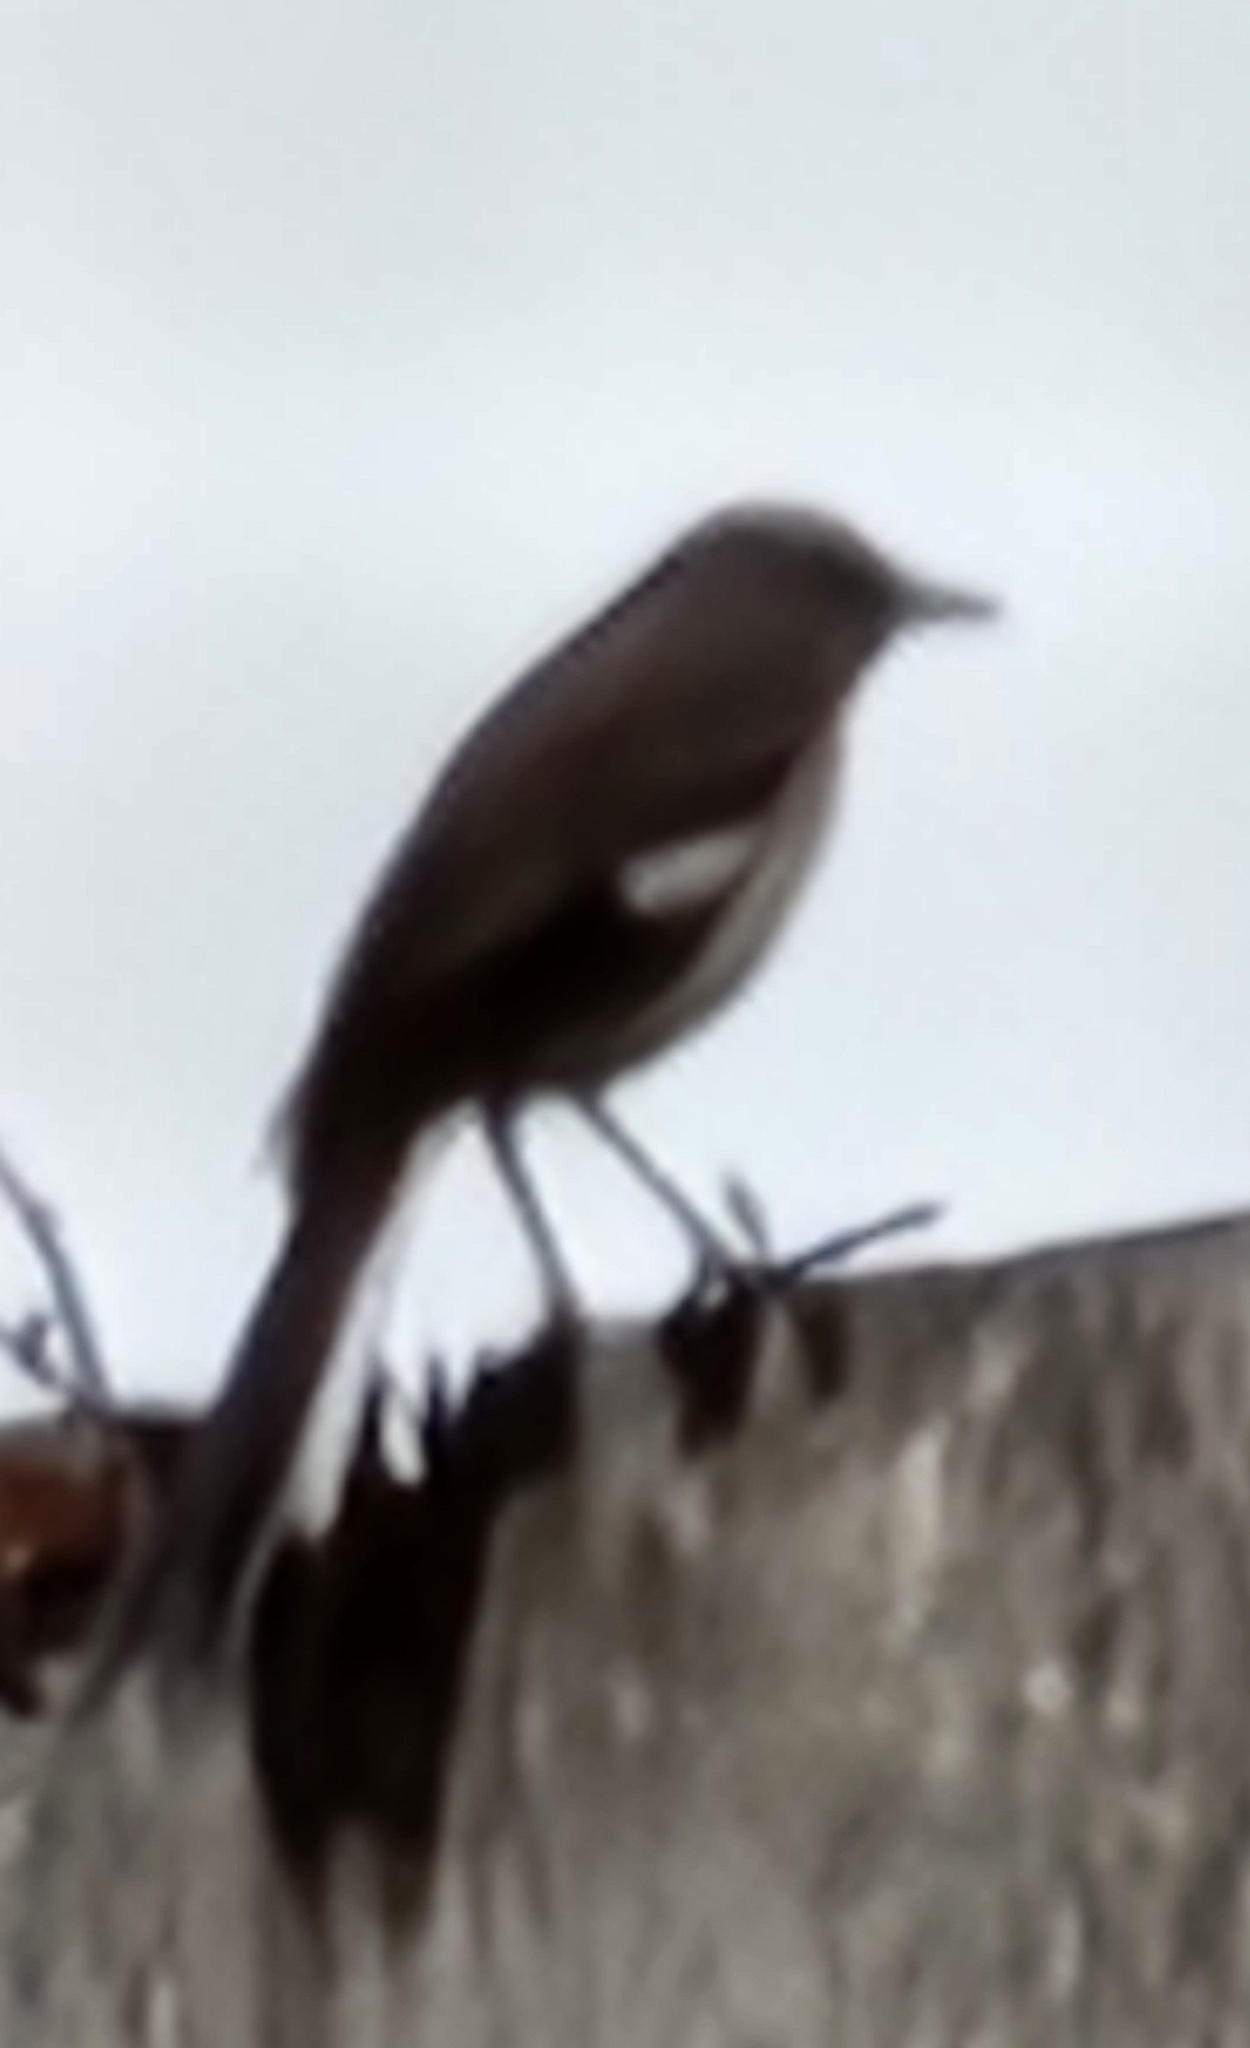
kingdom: Animalia
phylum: Chordata
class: Aves
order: Passeriformes
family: Mimidae
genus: Mimus
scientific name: Mimus polyglottos
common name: Northern mockingbird
